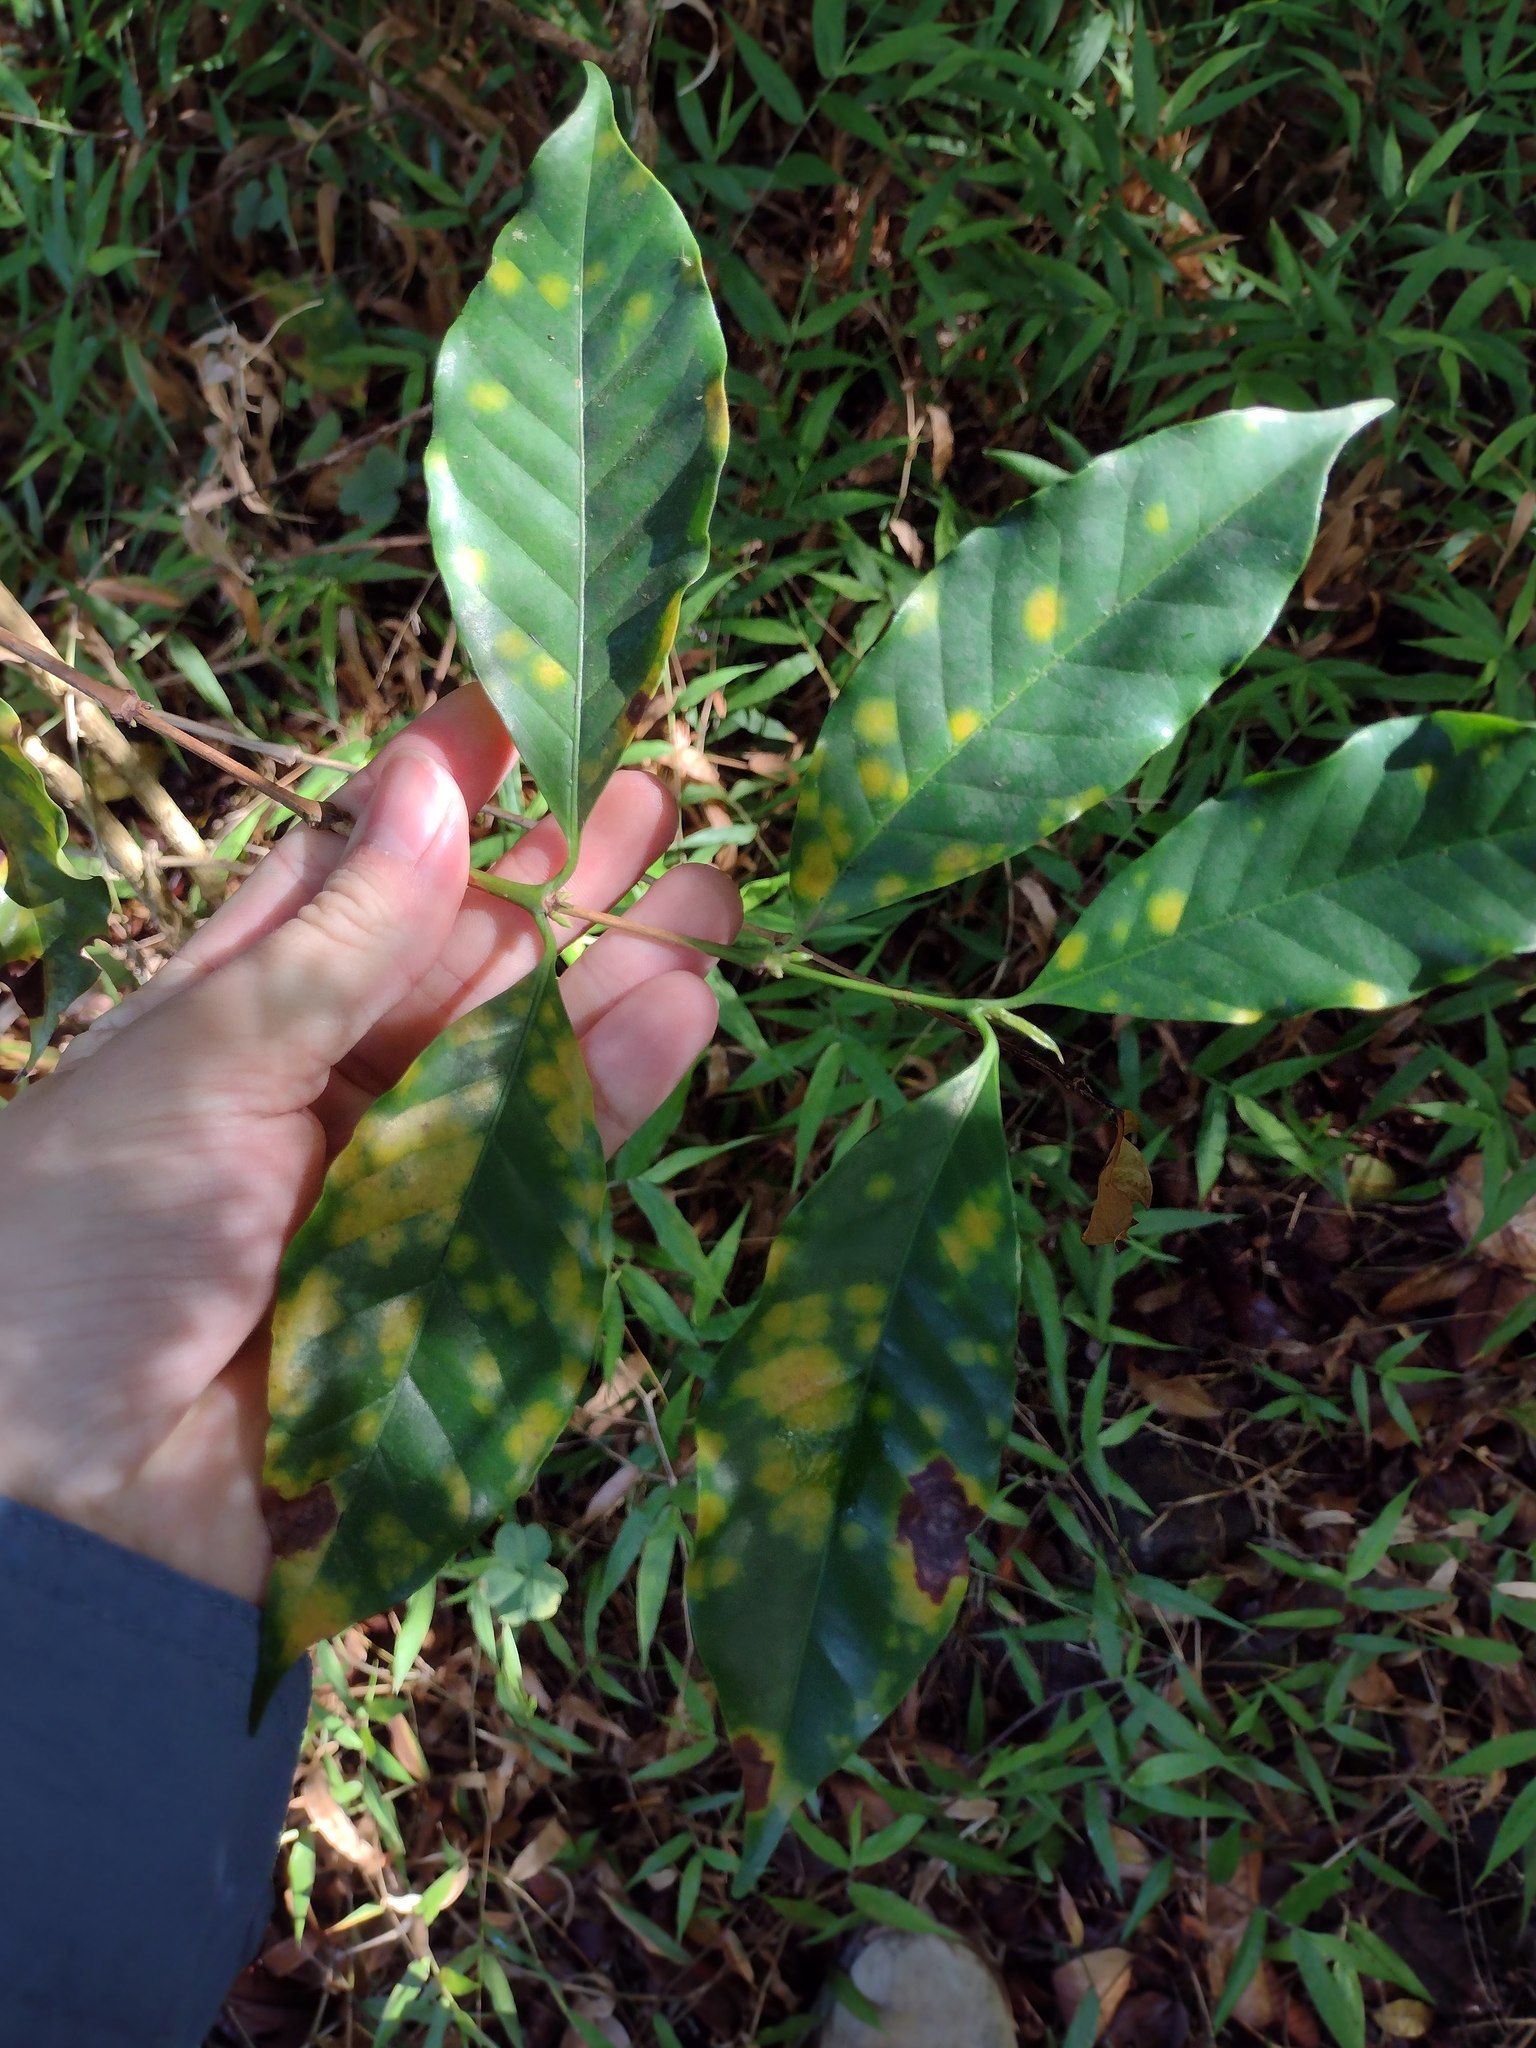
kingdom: Plantae
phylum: Tracheophyta
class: Magnoliopsida
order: Gentianales
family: Rubiaceae
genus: Coffea
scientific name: Coffea arabica
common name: Coffee
